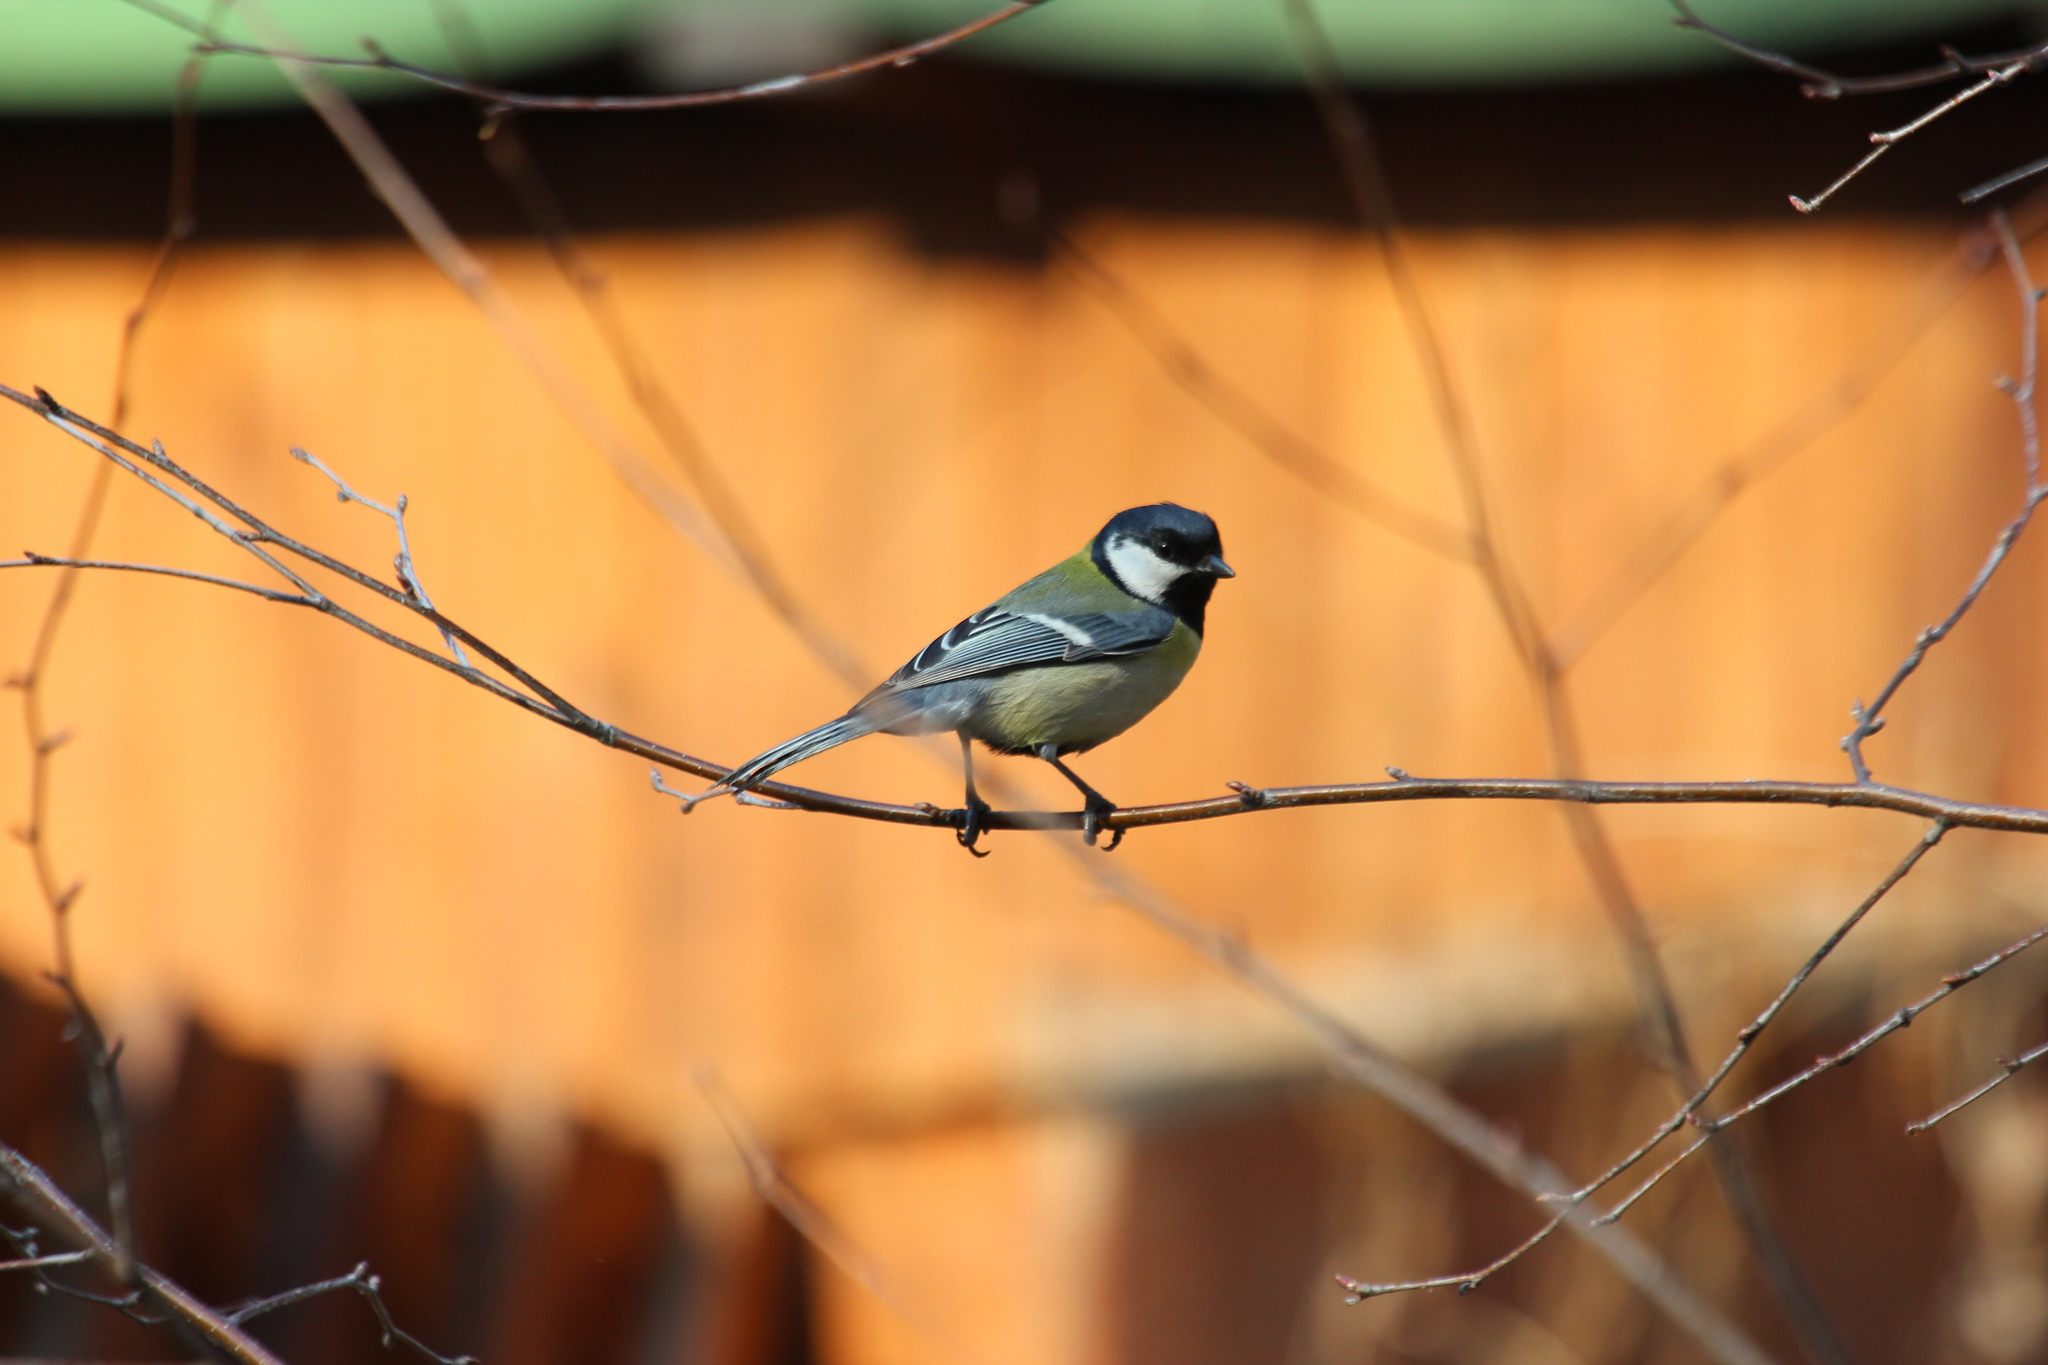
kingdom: Animalia
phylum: Chordata
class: Aves
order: Passeriformes
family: Paridae
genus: Parus
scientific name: Parus major
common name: Great tit
